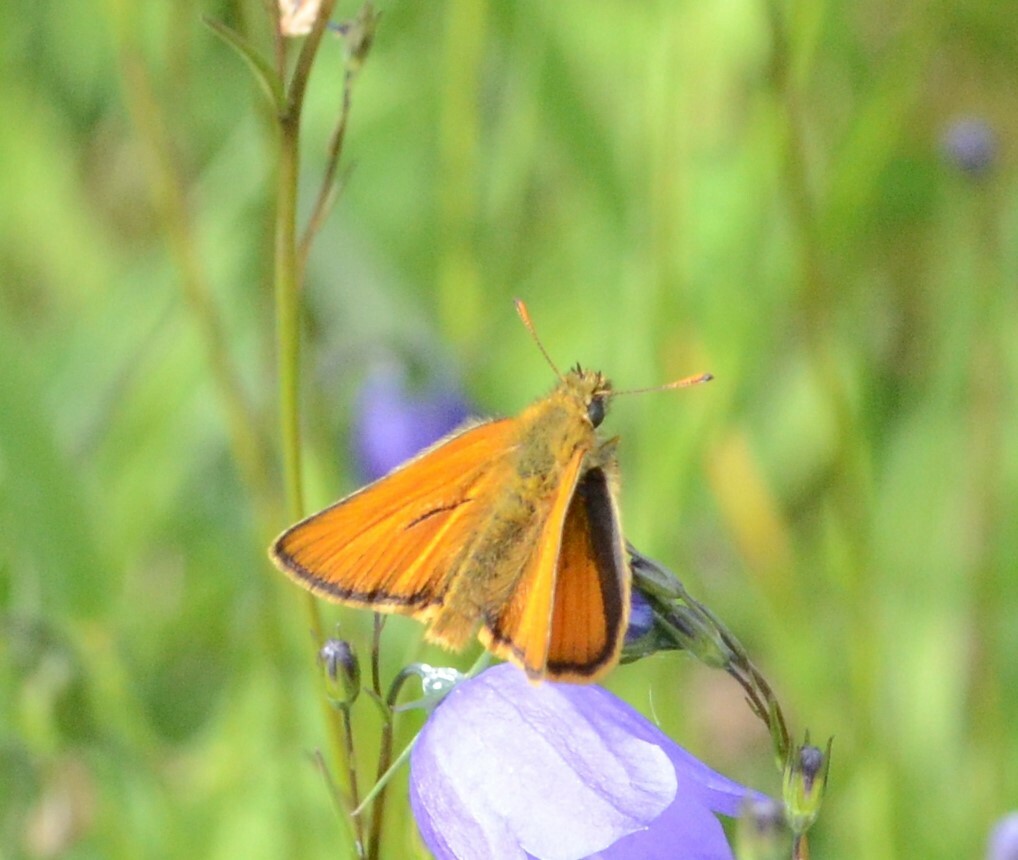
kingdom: Animalia
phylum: Arthropoda
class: Insecta
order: Lepidoptera
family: Hesperiidae
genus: Thymelicus
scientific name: Thymelicus sylvestris
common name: Small skipper
